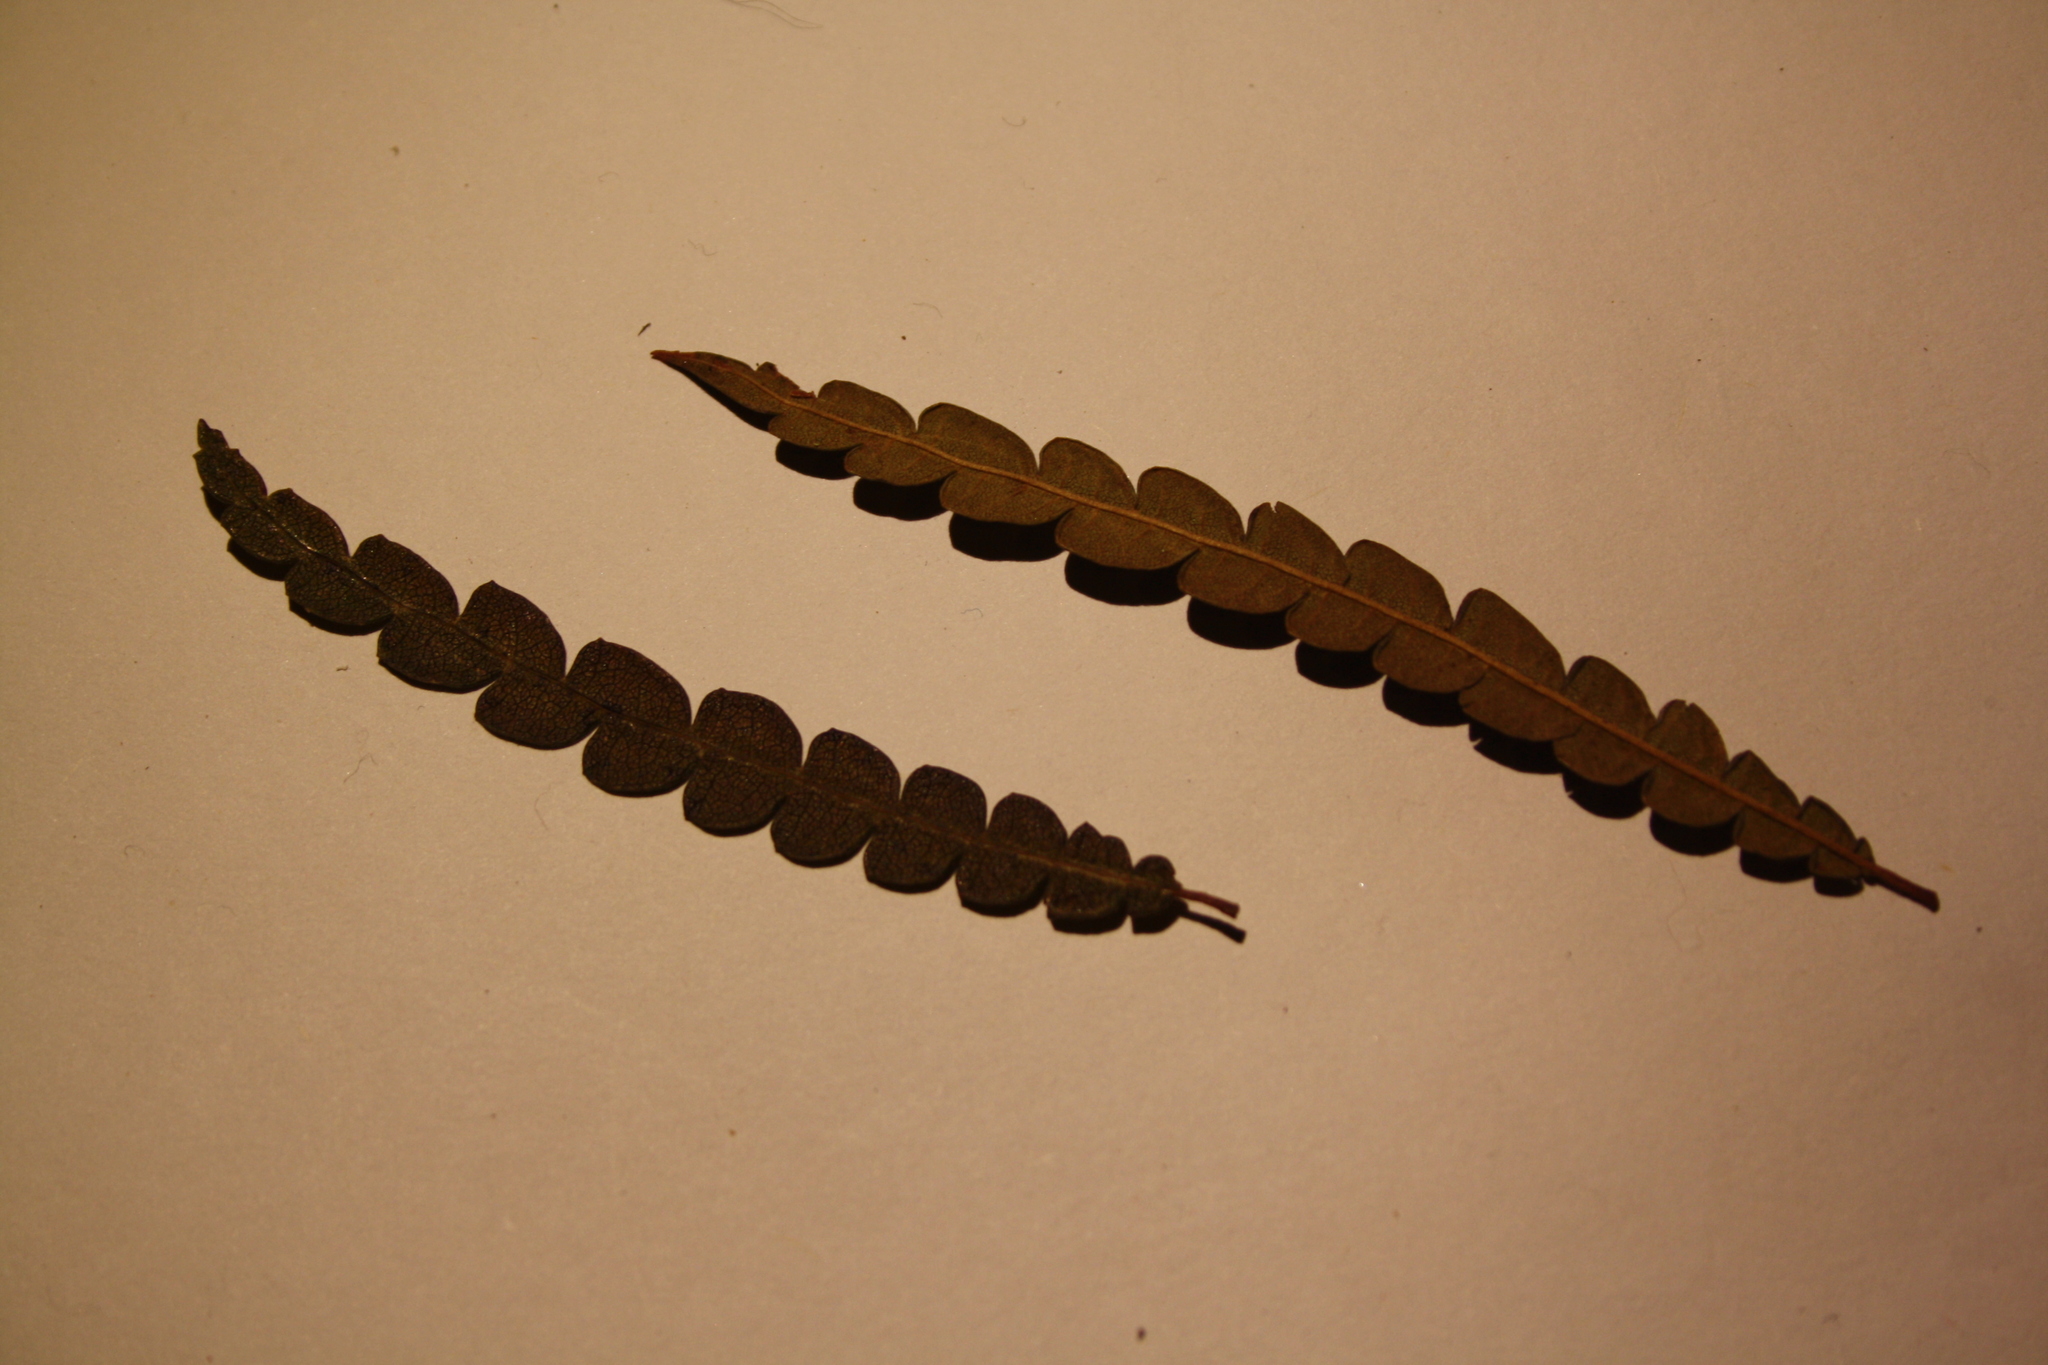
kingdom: Plantae
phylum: Tracheophyta
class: Magnoliopsida
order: Fagales
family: Myricaceae
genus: Comptonia
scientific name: Comptonia peregrina
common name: Sweet-fern
